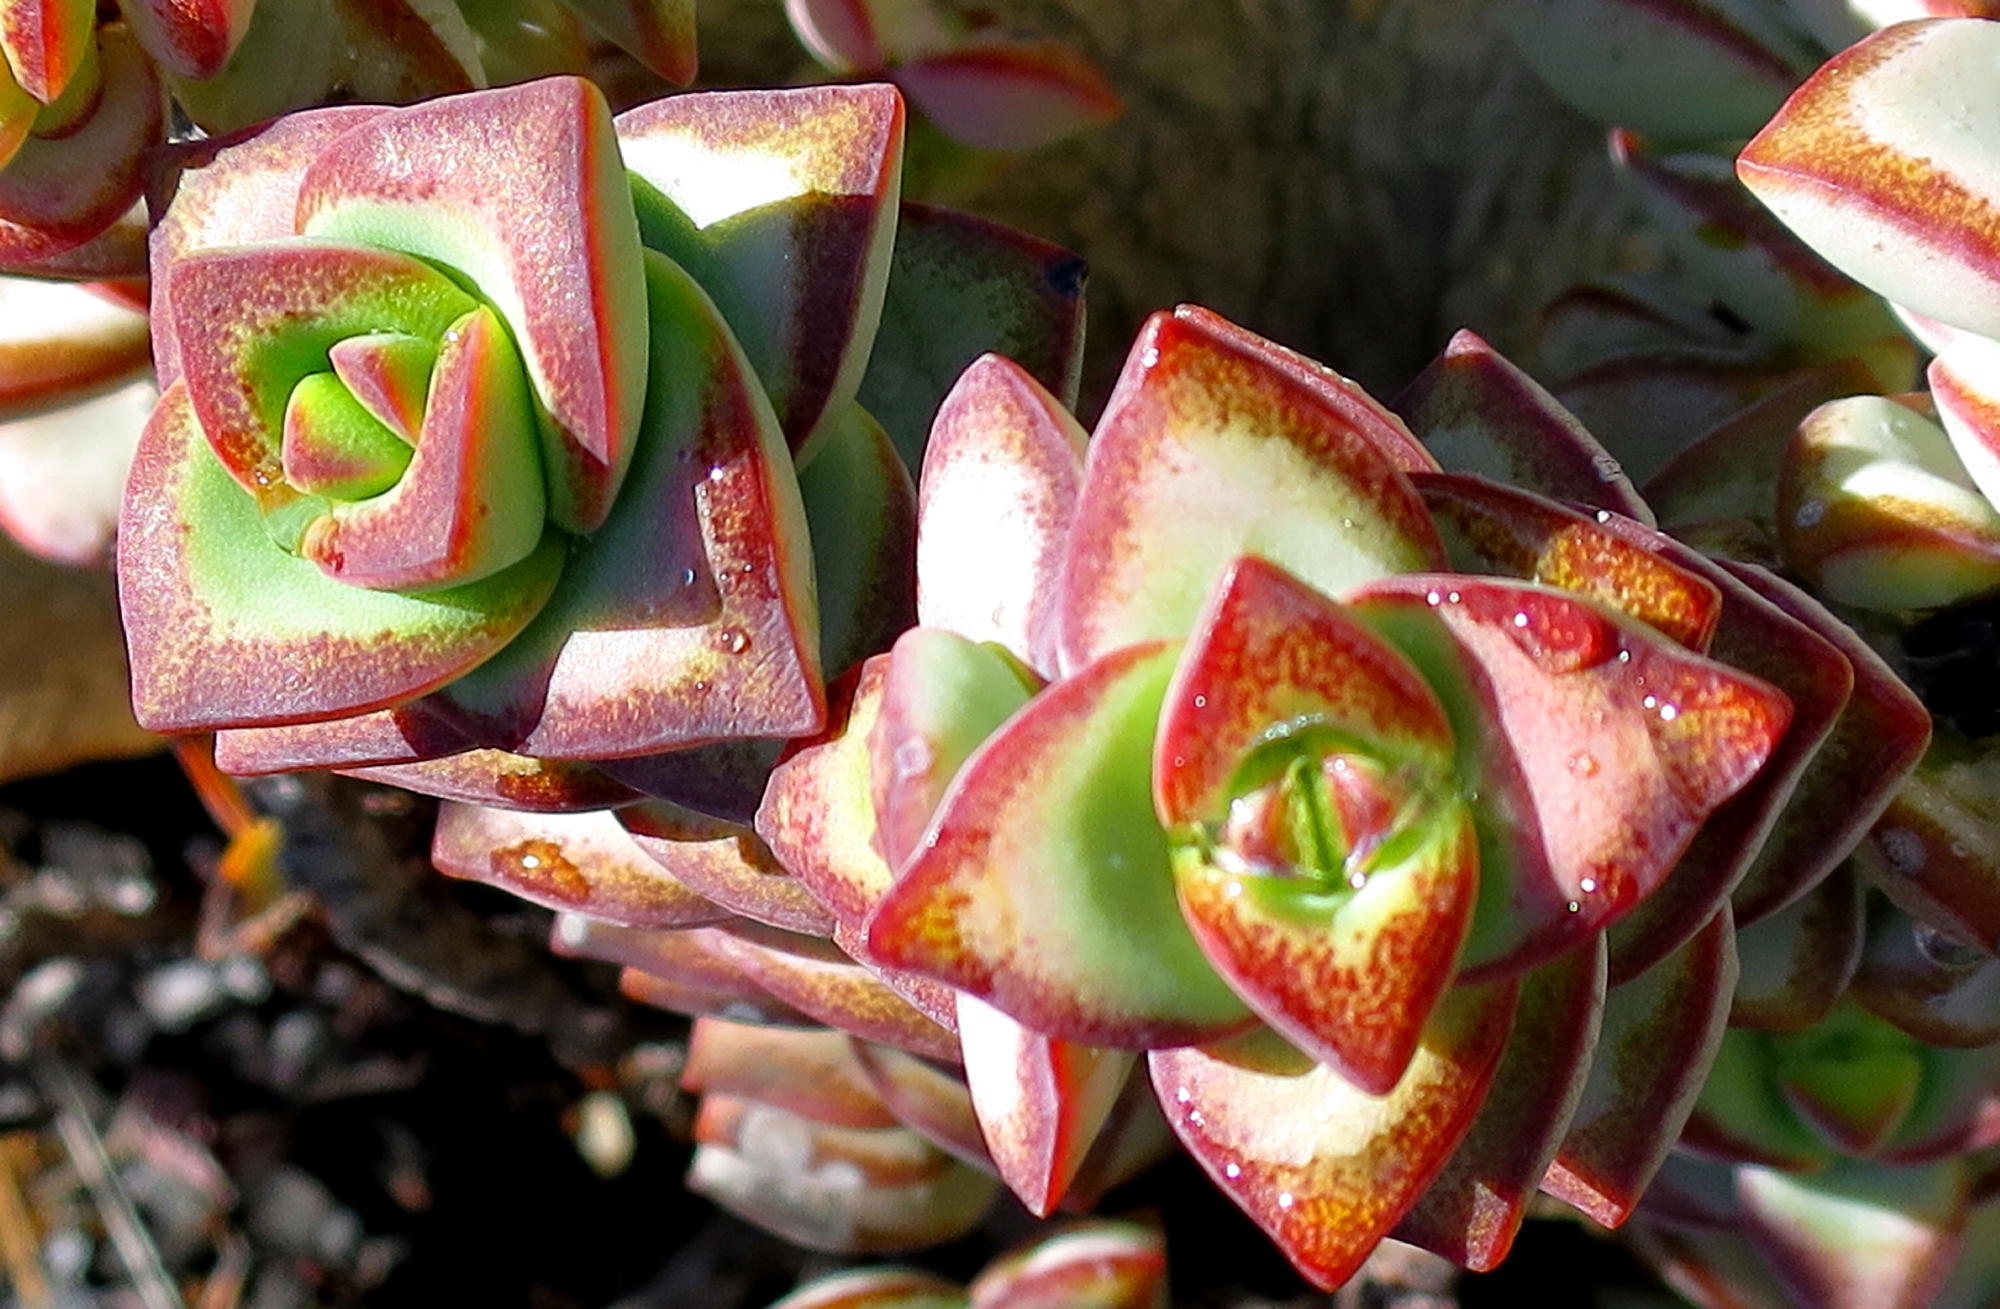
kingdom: Plantae
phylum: Tracheophyta
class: Magnoliopsida
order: Saxifragales
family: Crassulaceae
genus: Crassula
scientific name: Crassula rupestris
